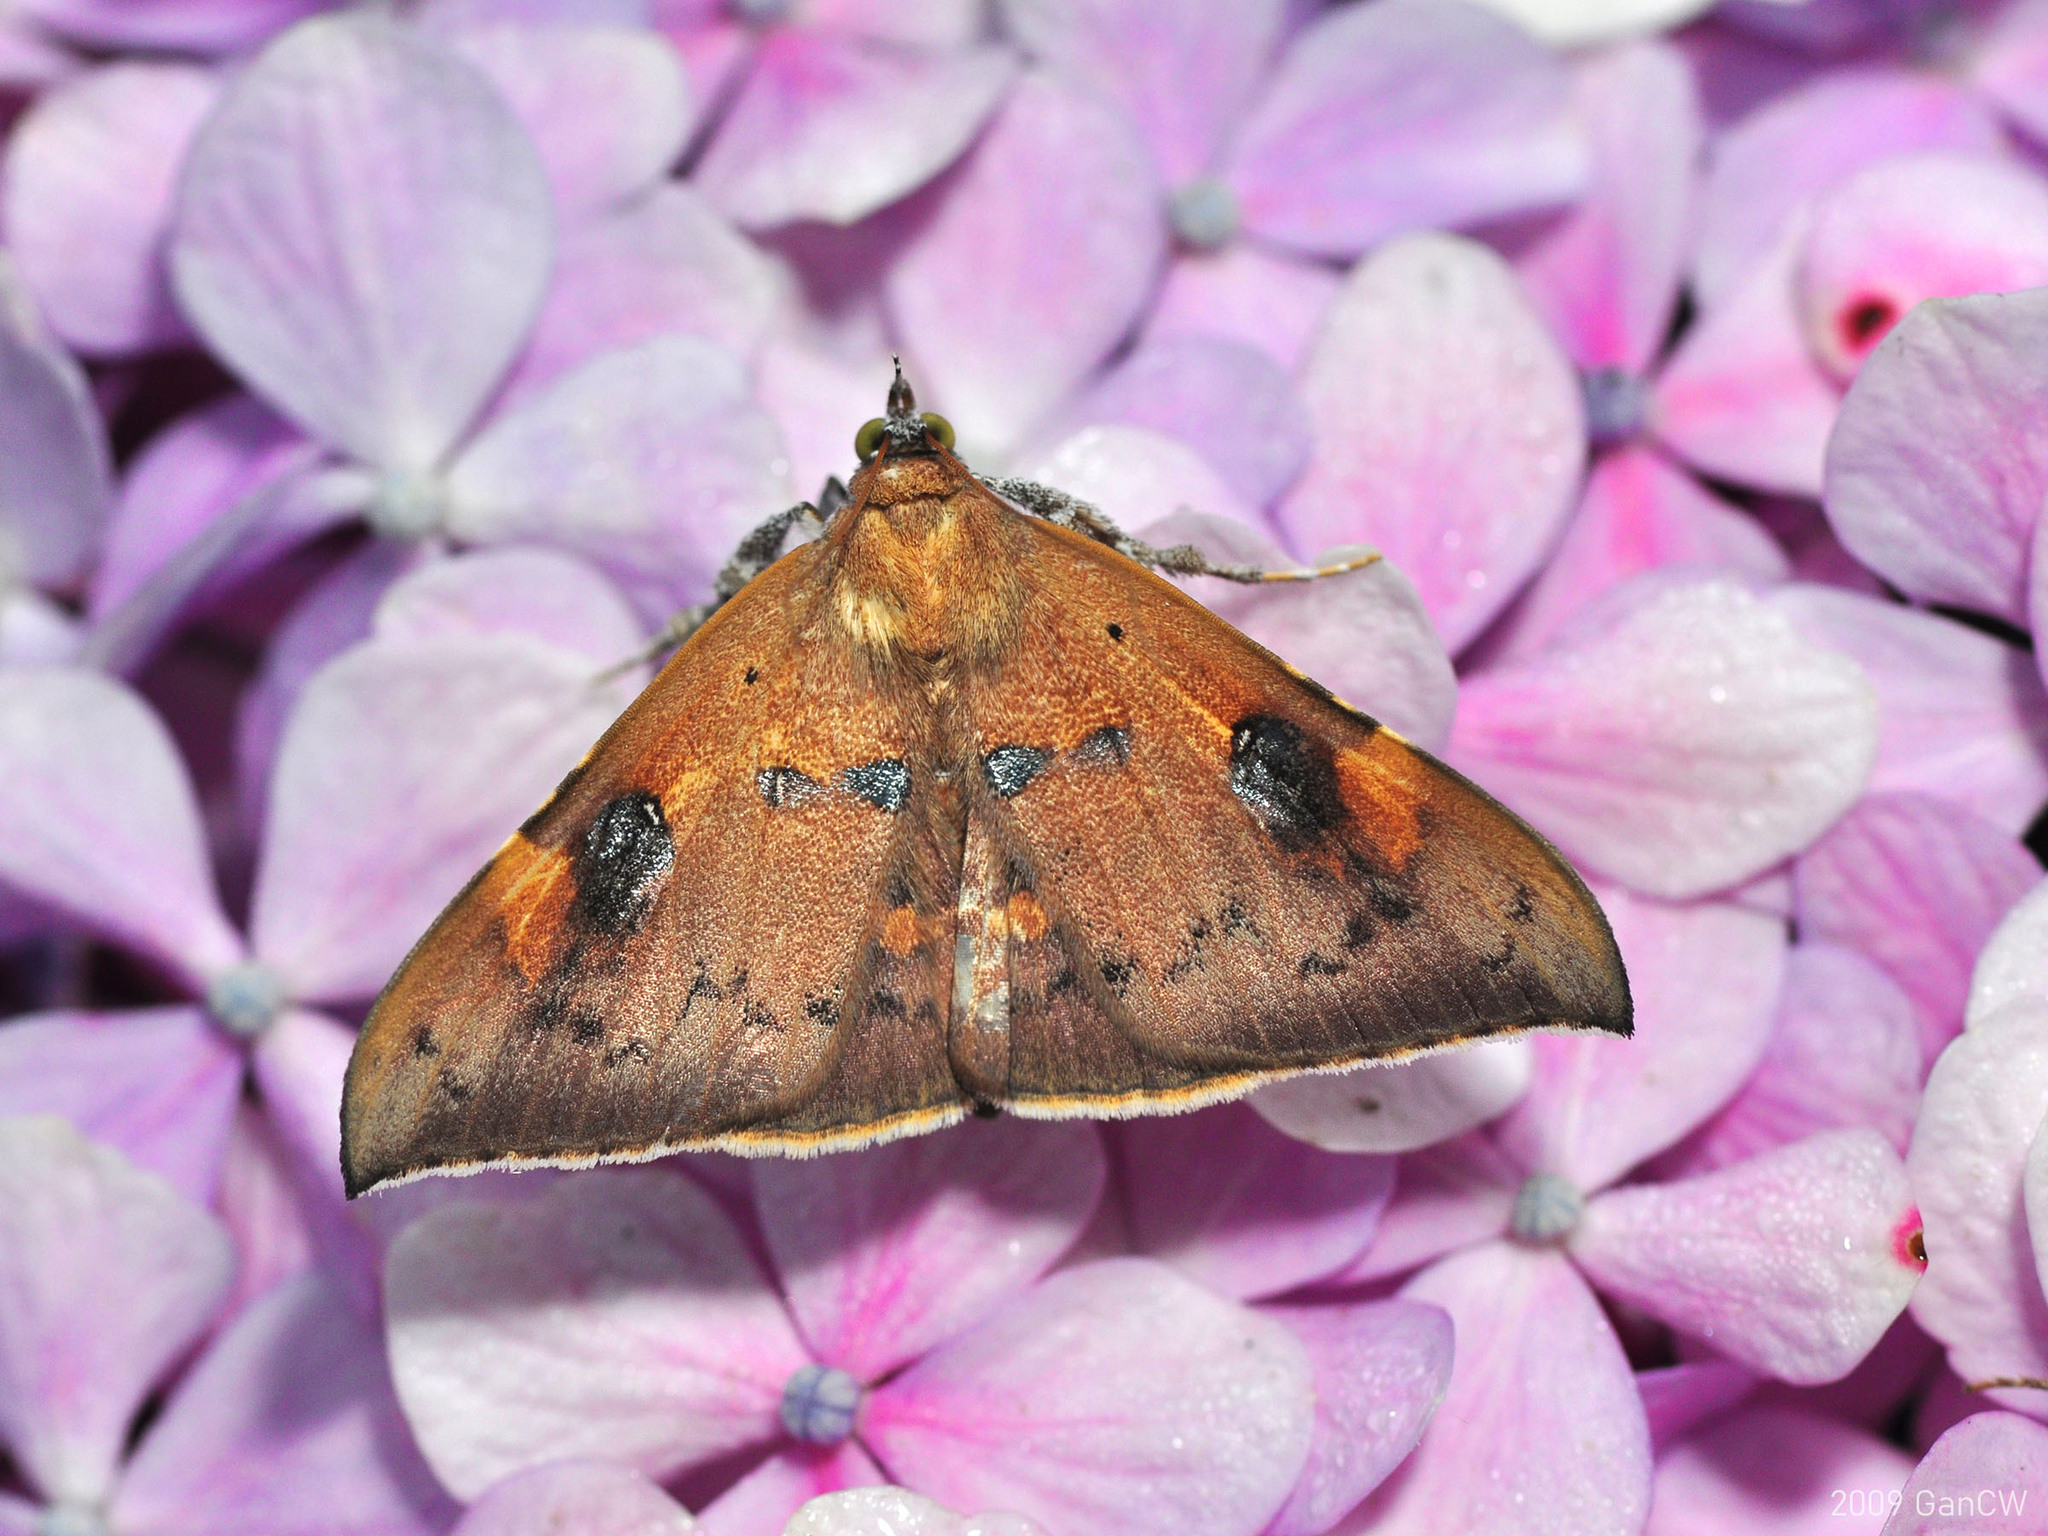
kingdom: Animalia
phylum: Arthropoda
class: Insecta
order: Lepidoptera
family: Erebidae
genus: Rectipalpula
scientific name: Rectipalpula billeti
